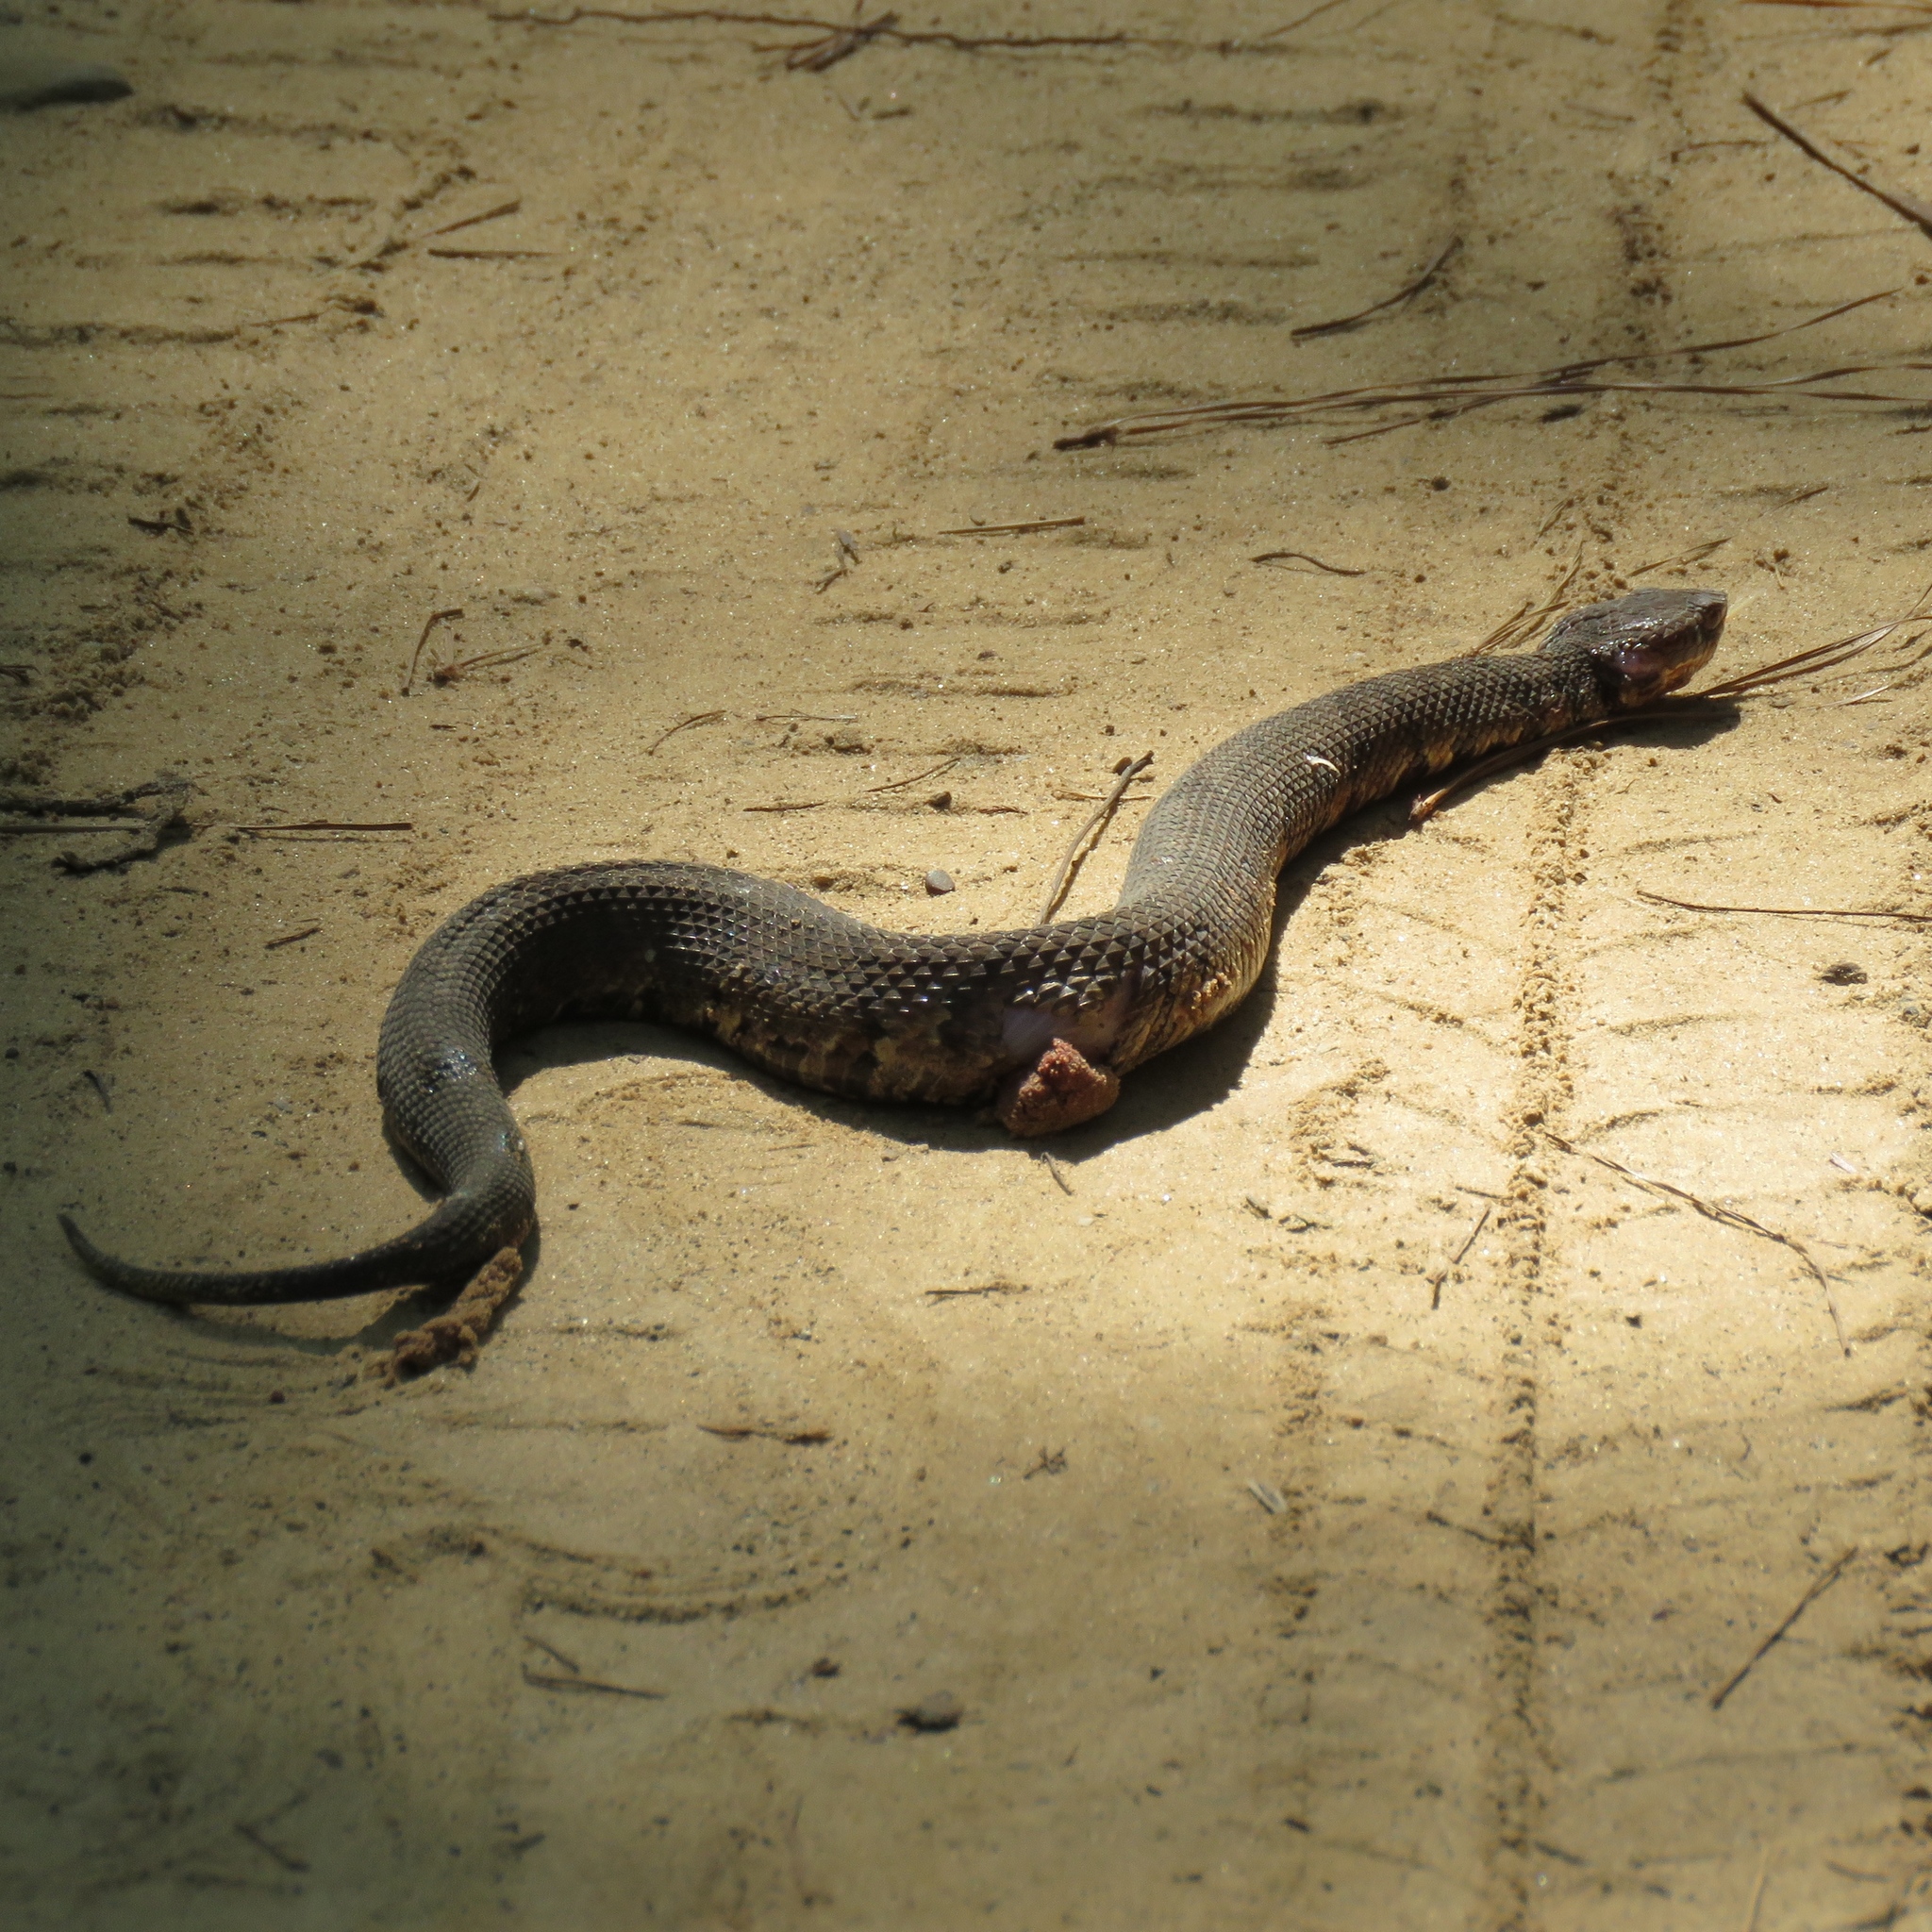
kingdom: Animalia
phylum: Chordata
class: Squamata
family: Viperidae
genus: Agkistrodon
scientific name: Agkistrodon piscivorus
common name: Cottonmouth
